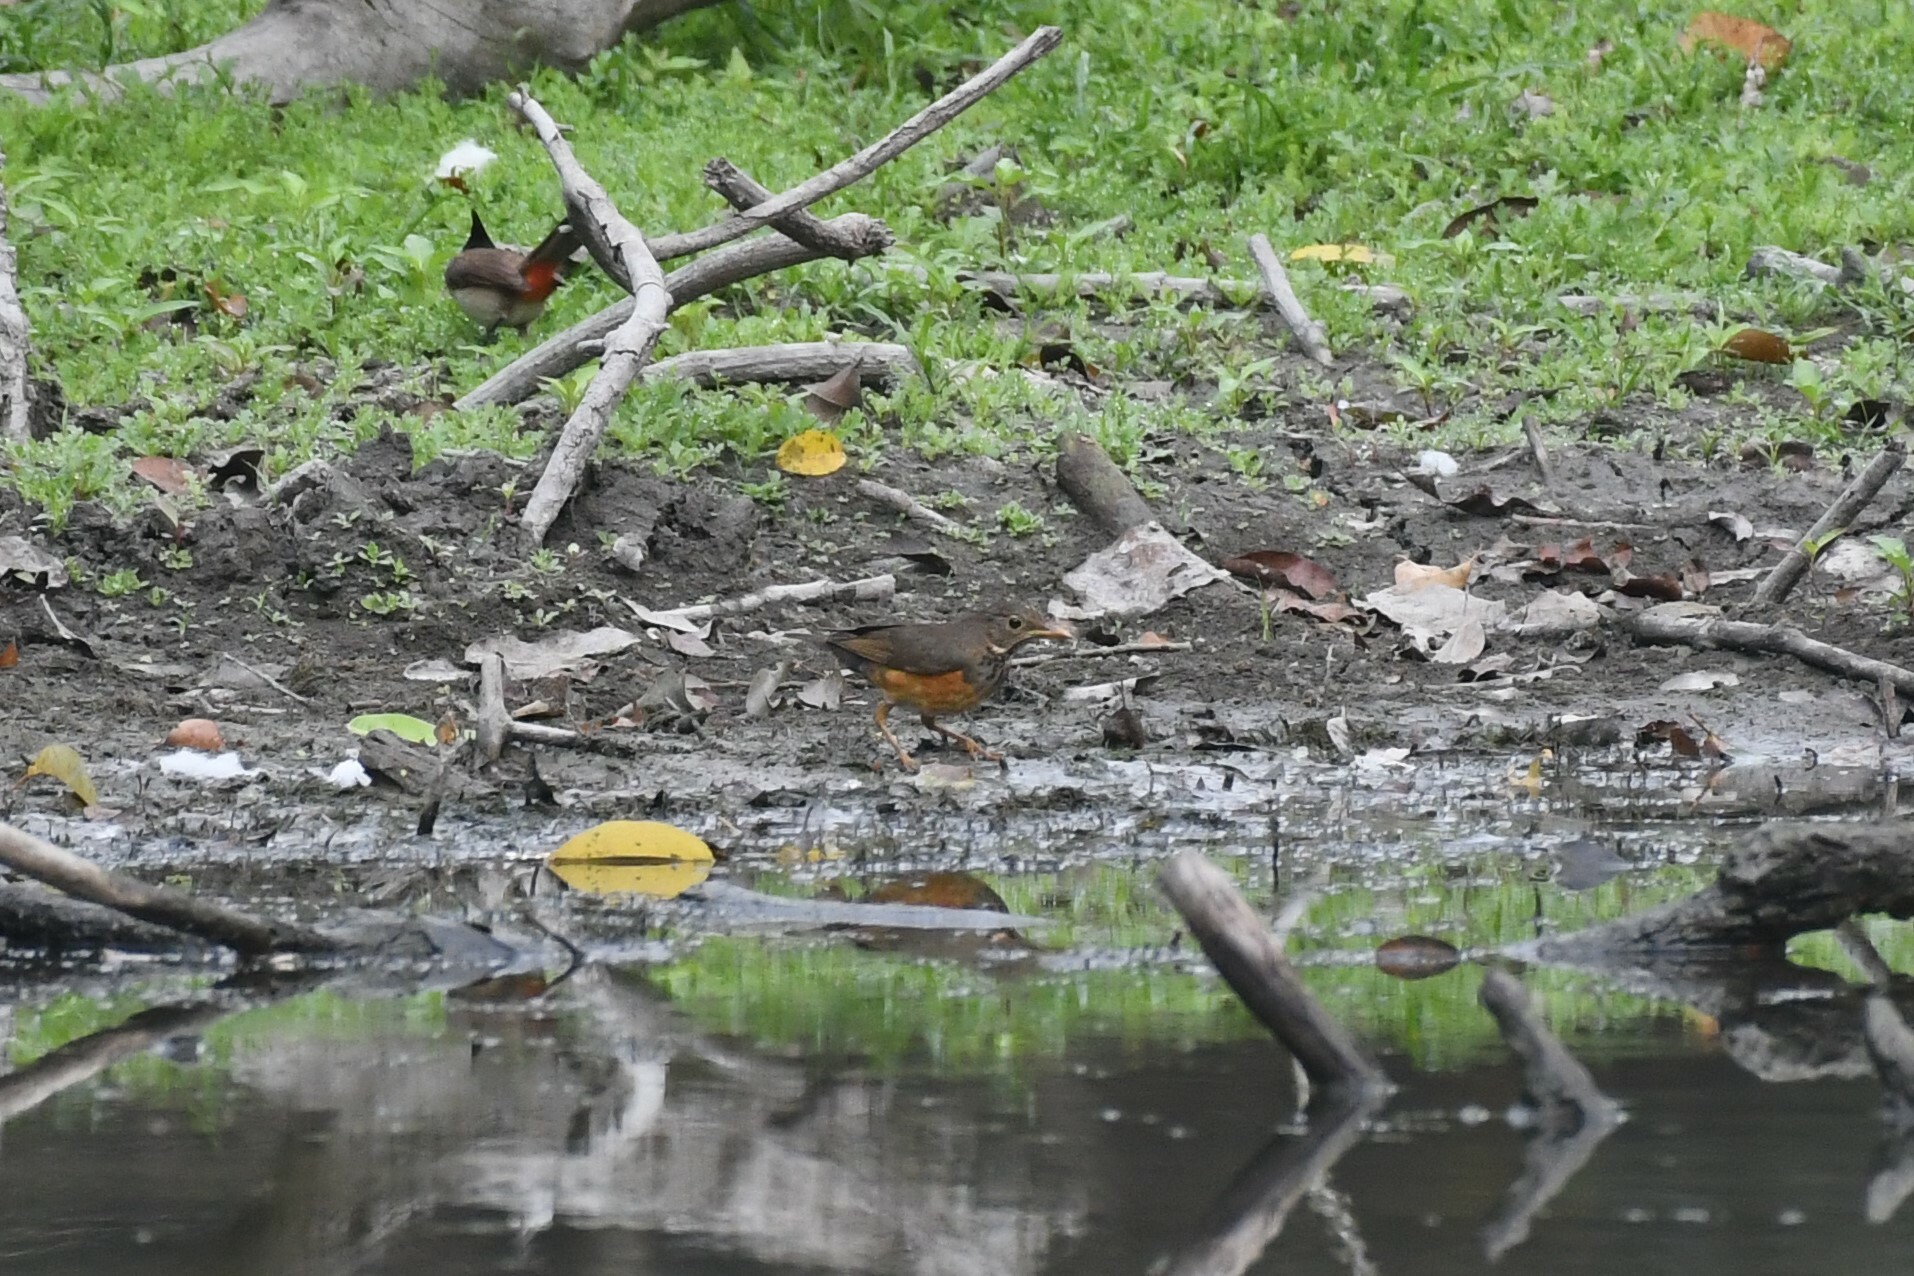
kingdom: Animalia
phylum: Chordata
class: Aves
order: Passeriformes
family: Turdidae
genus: Turdus
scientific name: Turdus dissimilis
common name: Black-breasted thrush
